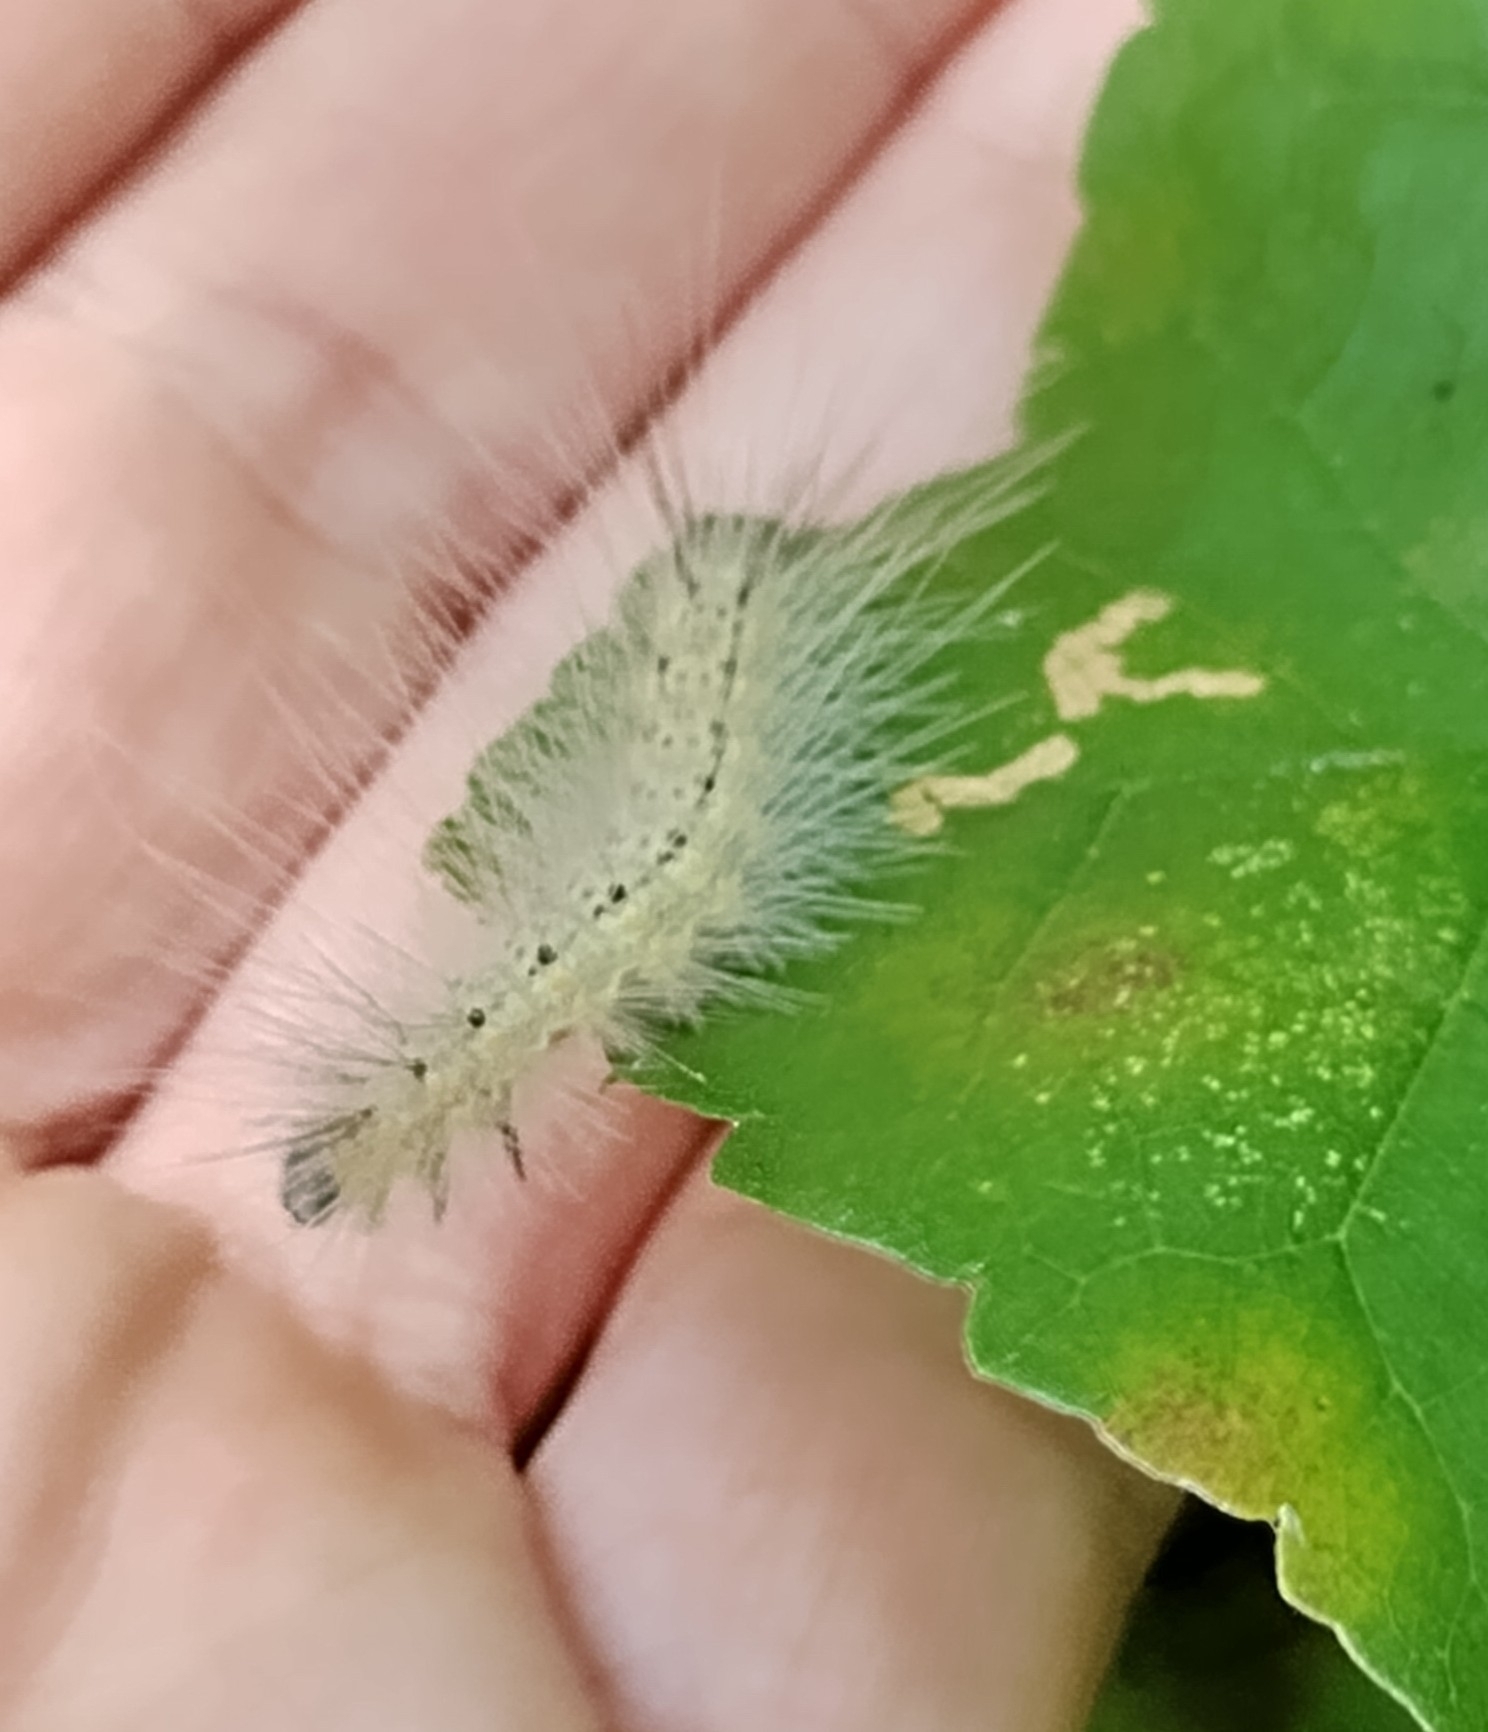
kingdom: Animalia
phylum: Arthropoda
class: Insecta
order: Lepidoptera
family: Erebidae
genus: Hyphantria
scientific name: Hyphantria cunea
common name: American white moth
